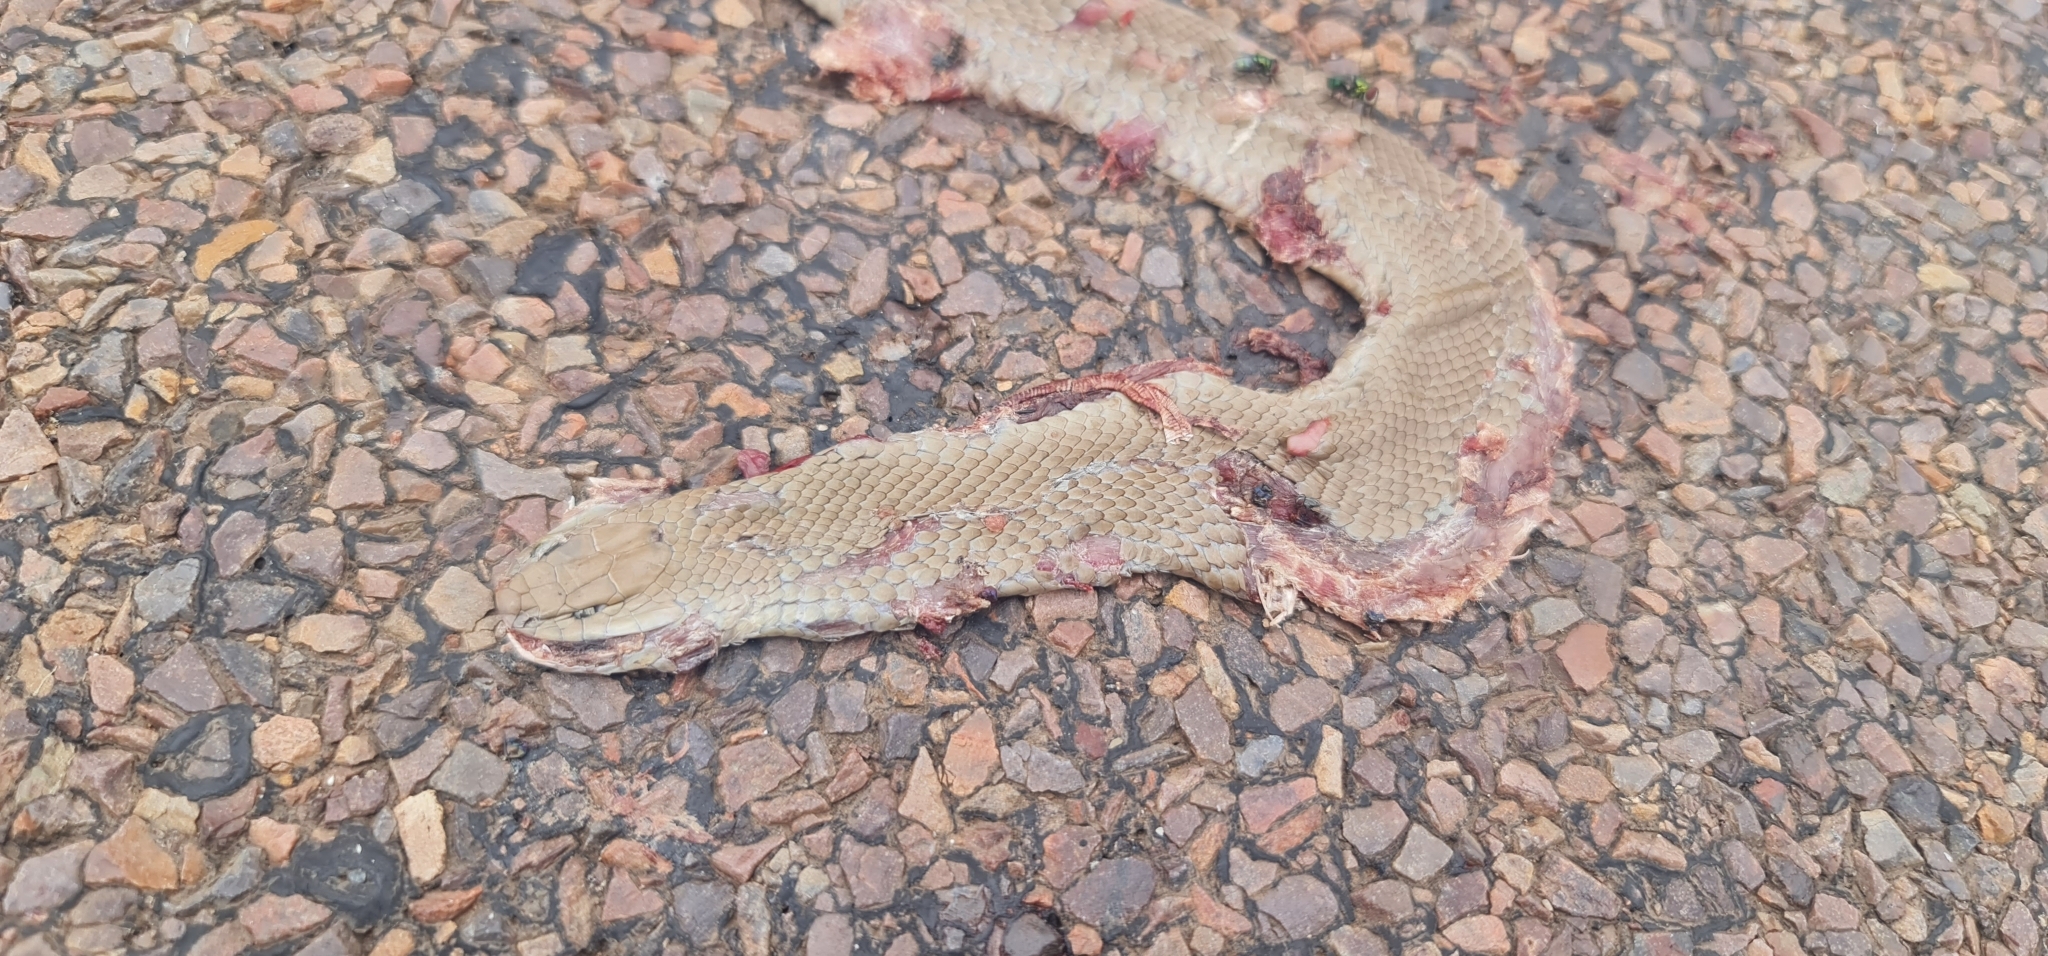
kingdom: Animalia
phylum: Chordata
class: Squamata
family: Elapidae
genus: Pseudonaja
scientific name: Pseudonaja textilis
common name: Eastern brown snake
